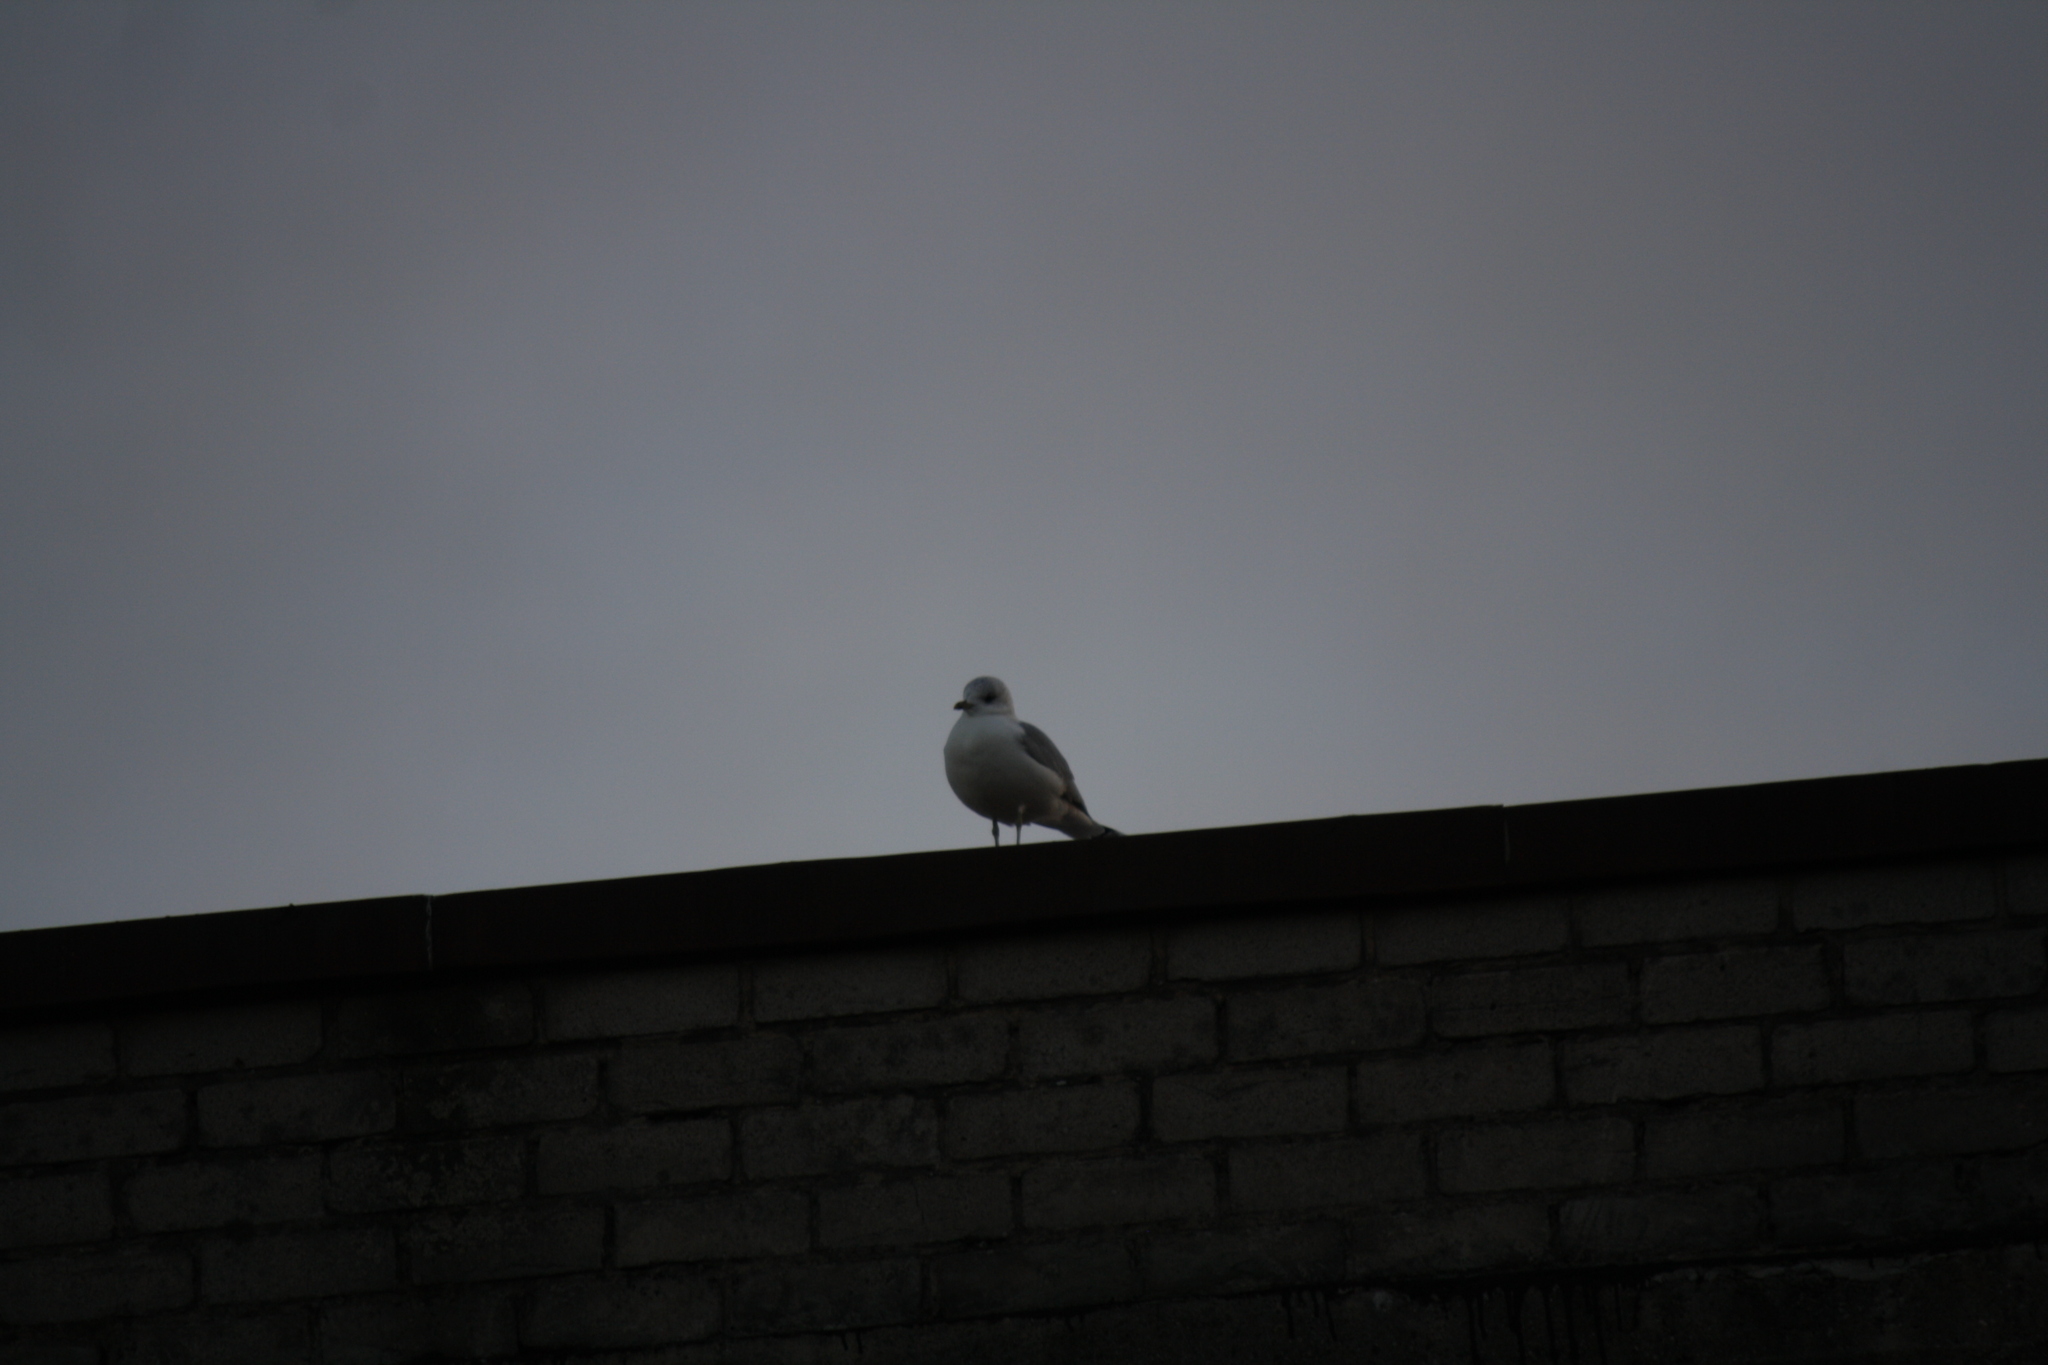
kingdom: Animalia
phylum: Chordata
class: Aves
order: Charadriiformes
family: Laridae
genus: Larus
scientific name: Larus canus
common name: Mew gull
